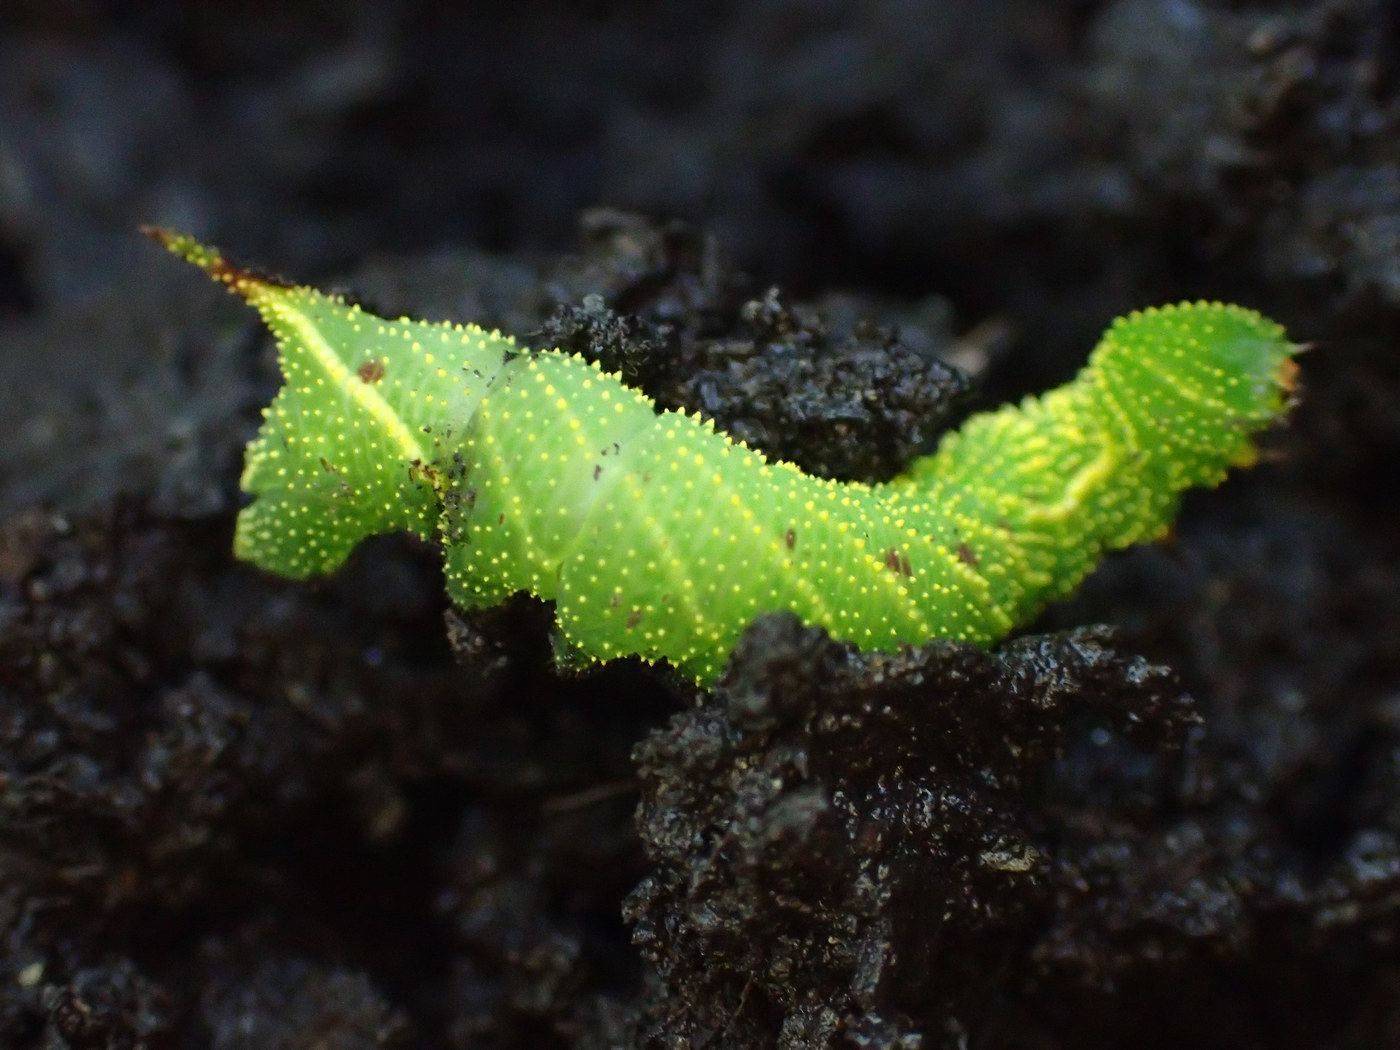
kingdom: Animalia
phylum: Arthropoda
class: Insecta
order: Lepidoptera
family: Sphingidae
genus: Paonias
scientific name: Paonias excaecata
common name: Blind-eyed sphinx
